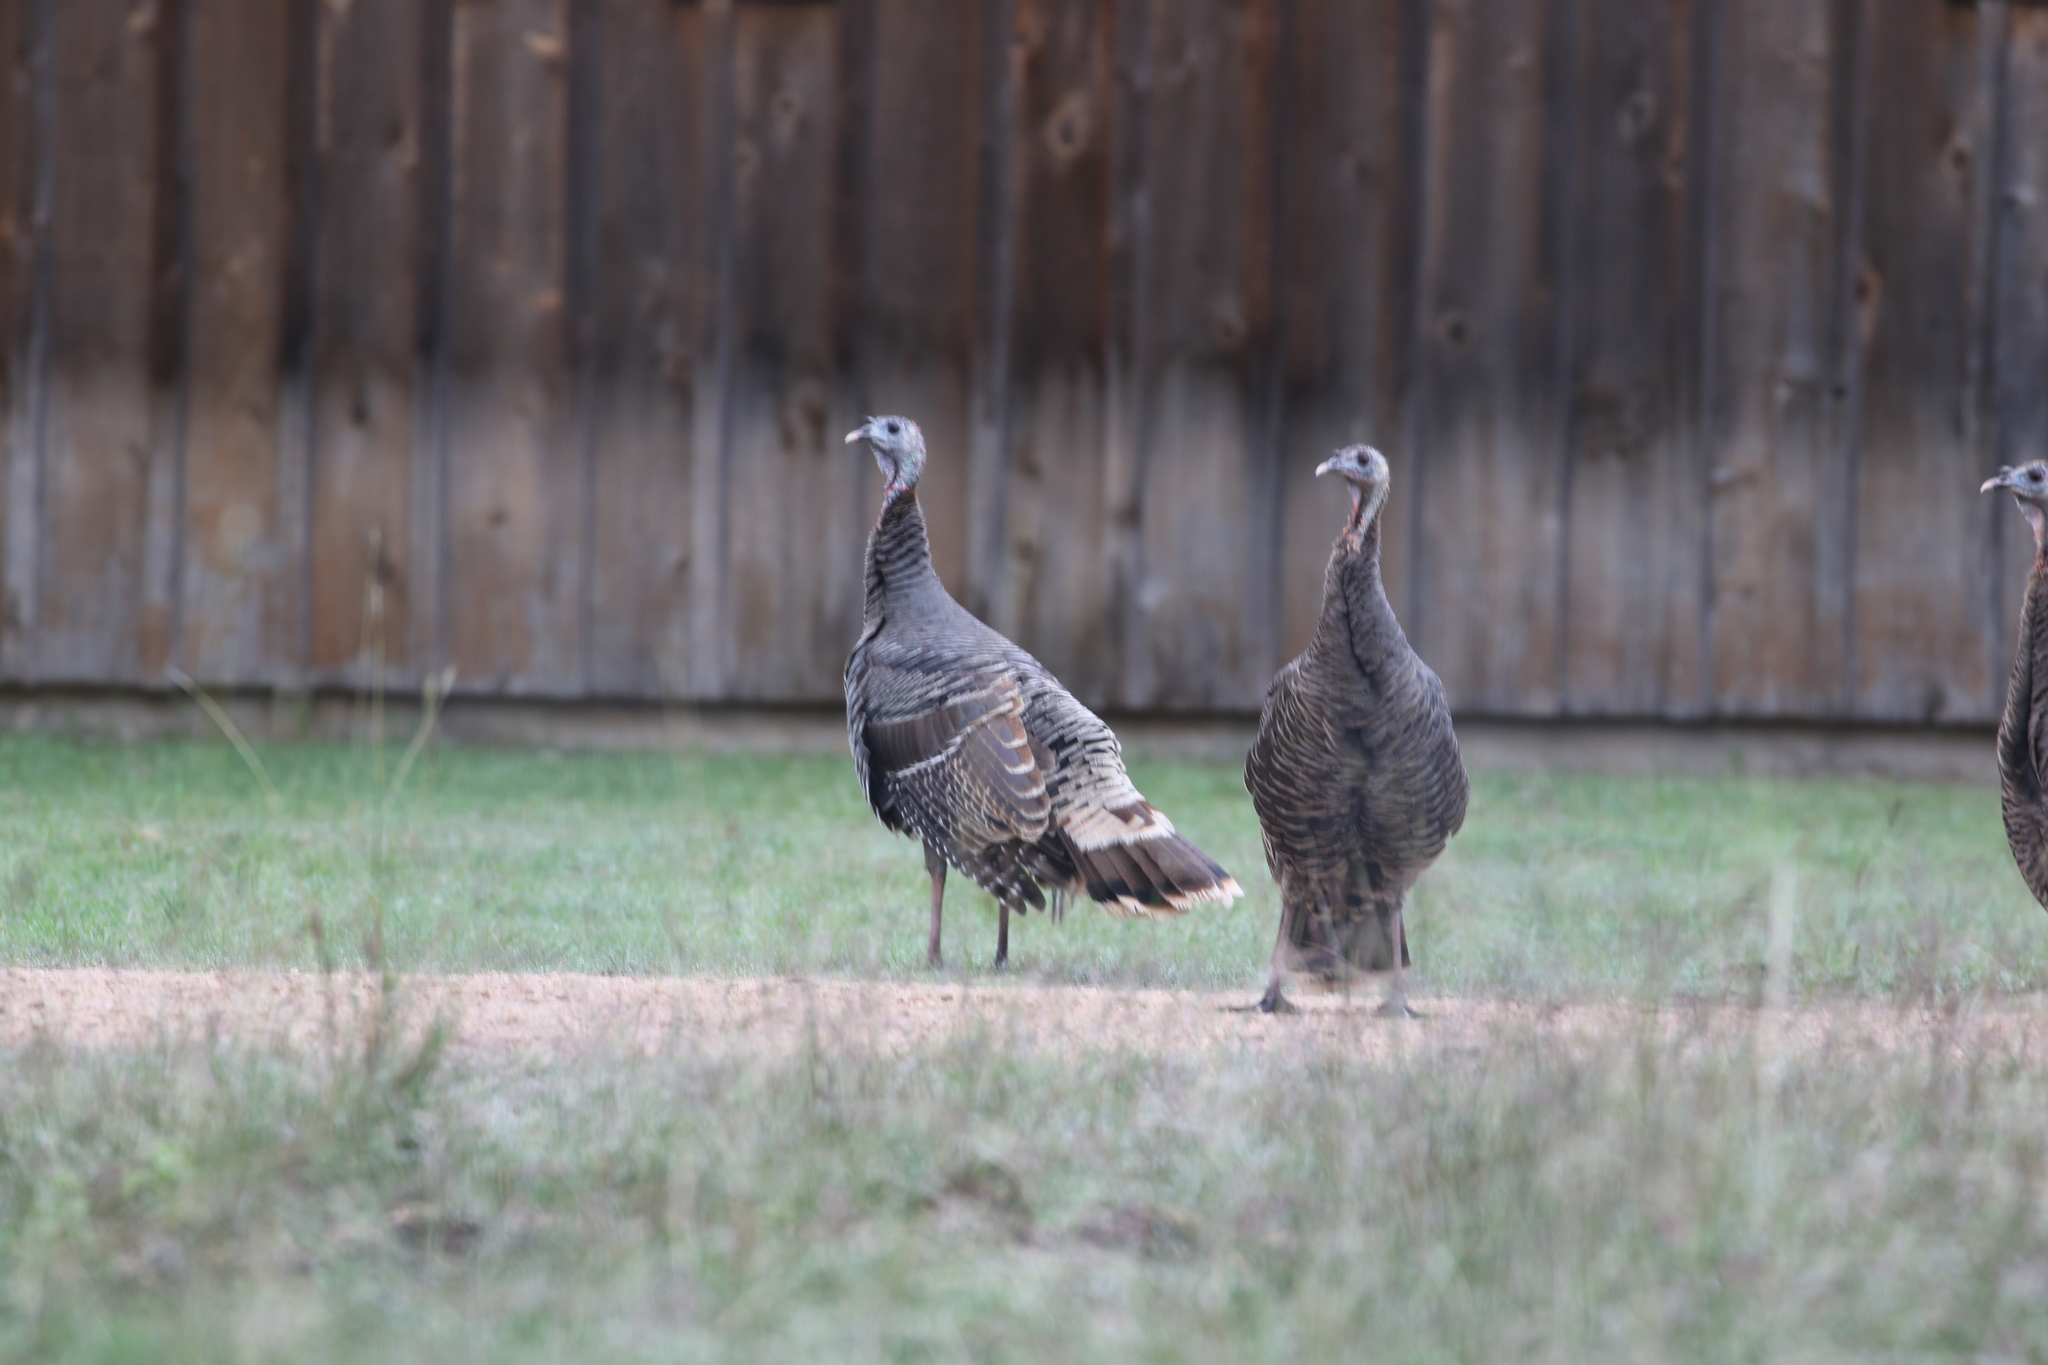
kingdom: Animalia
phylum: Chordata
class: Aves
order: Galliformes
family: Phasianidae
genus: Meleagris
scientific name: Meleagris gallopavo
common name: Wild turkey
